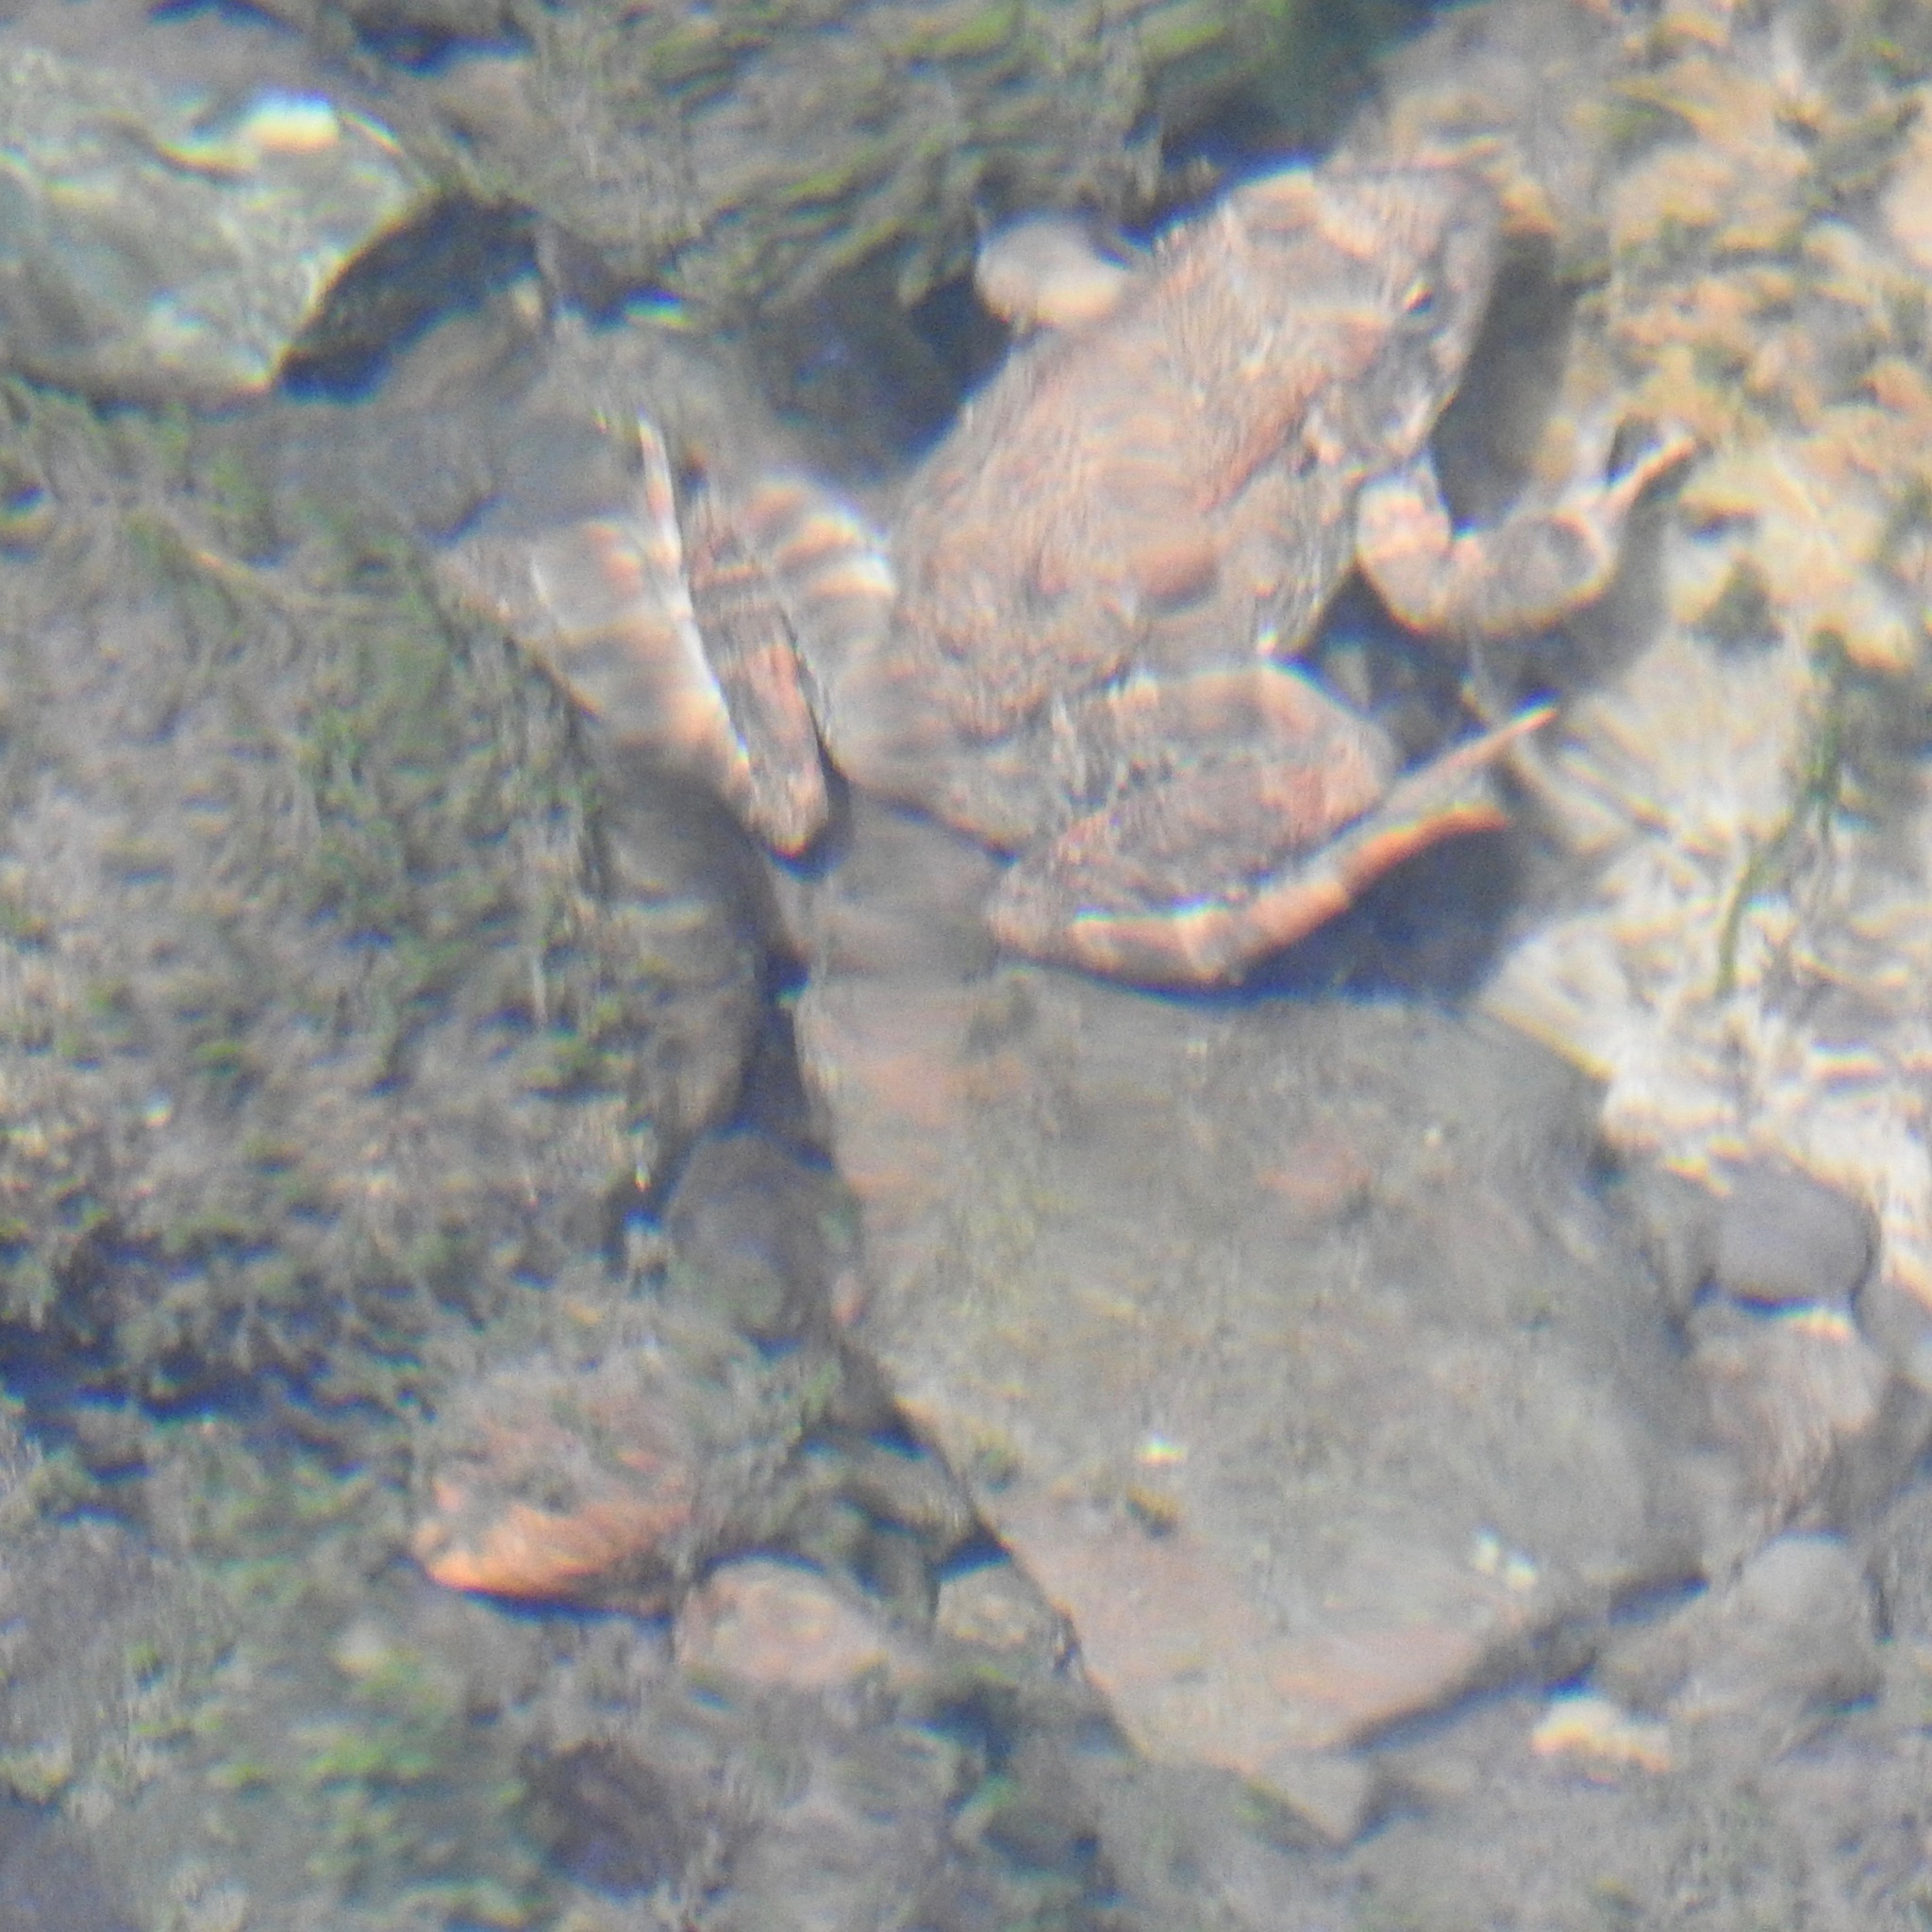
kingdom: Animalia
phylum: Chordata
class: Amphibia
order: Anura
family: Ranidae
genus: Rana
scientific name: Rana boylii
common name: Foothill yellow-legged frog
